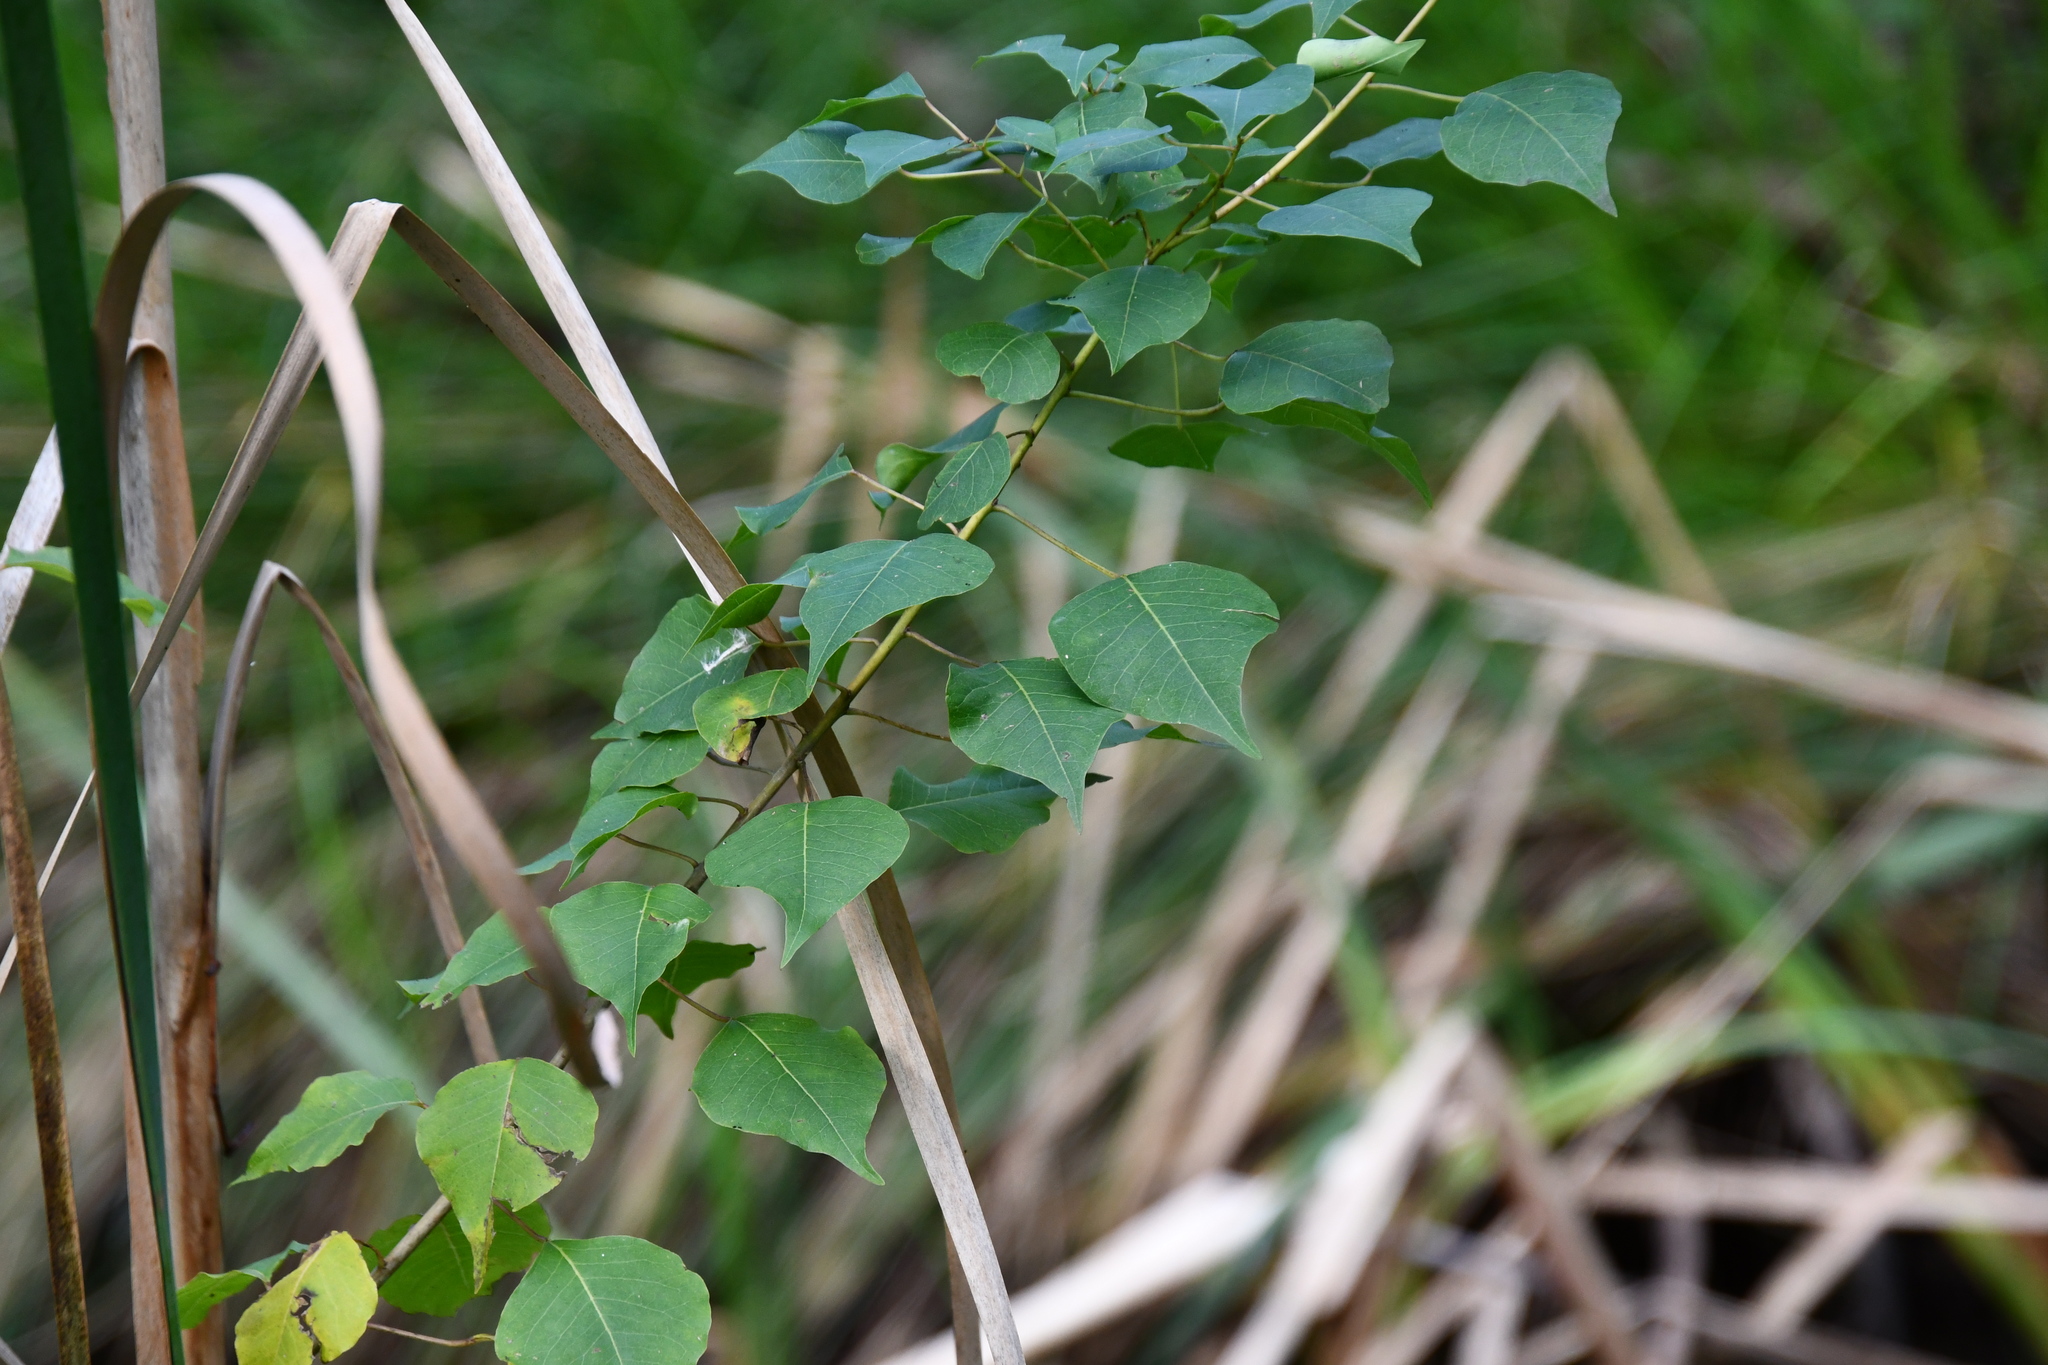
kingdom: Plantae
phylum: Tracheophyta
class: Magnoliopsida
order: Malpighiales
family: Euphorbiaceae
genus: Triadica
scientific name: Triadica sebifera
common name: Chinese tallow
